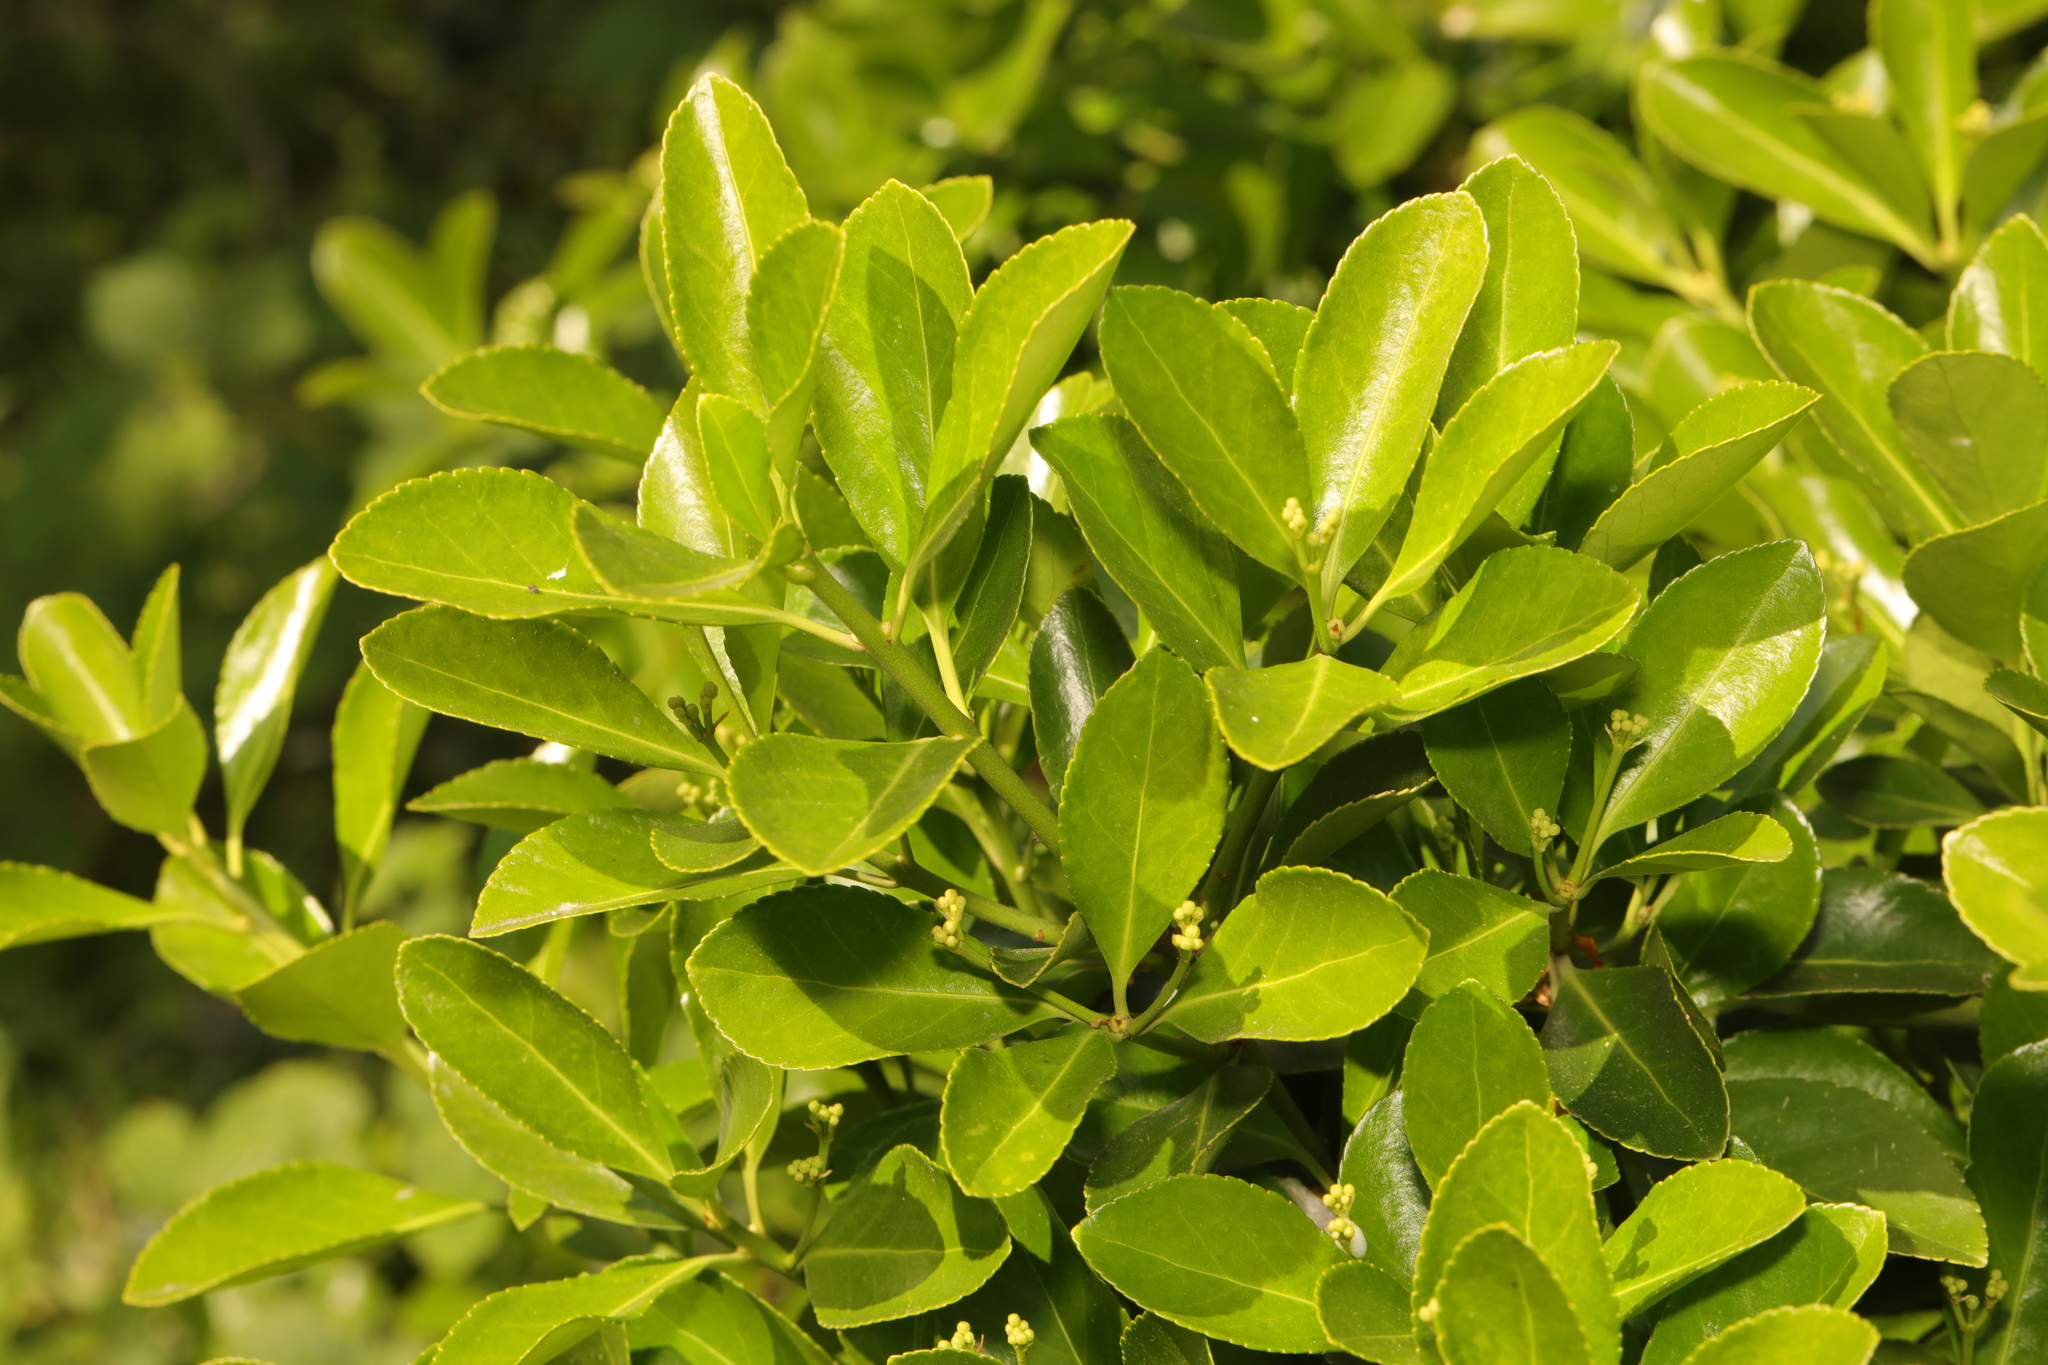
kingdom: Plantae
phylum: Tracheophyta
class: Magnoliopsida
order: Celastrales
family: Celastraceae
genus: Euonymus
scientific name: Euonymus japonicus
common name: Japanese spindletree
